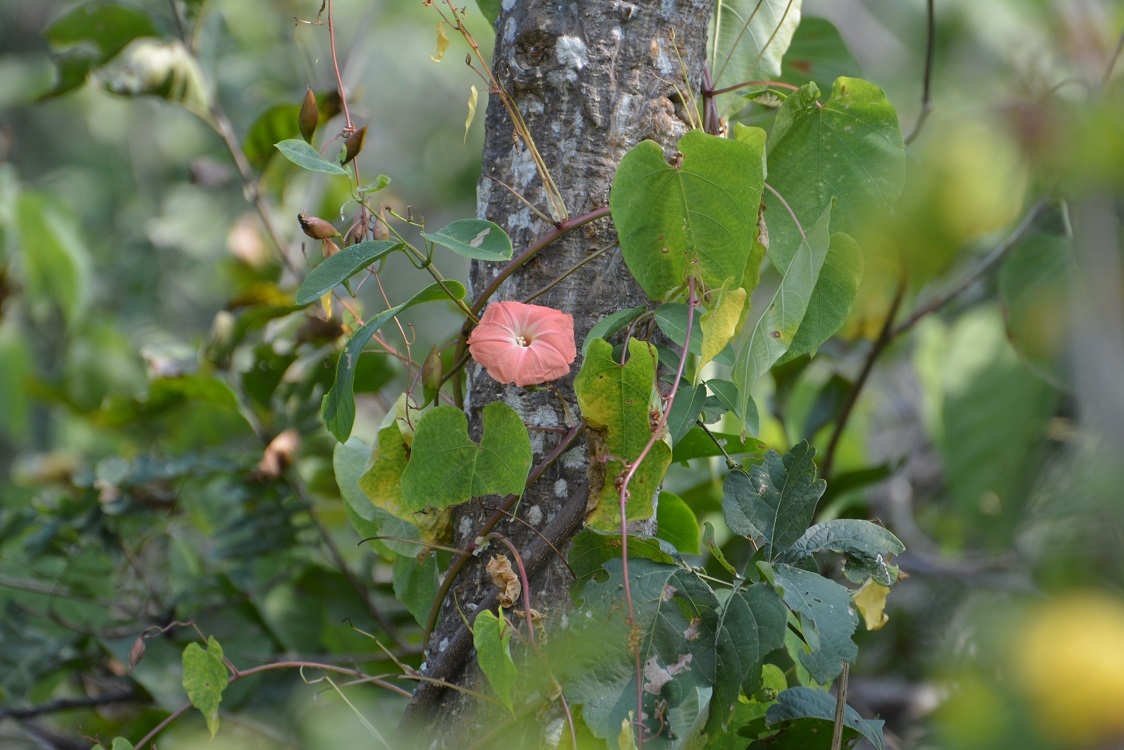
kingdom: Plantae
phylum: Tracheophyta
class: Magnoliopsida
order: Solanales
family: Convolvulaceae
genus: Operculina
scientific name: Operculina pteripes
